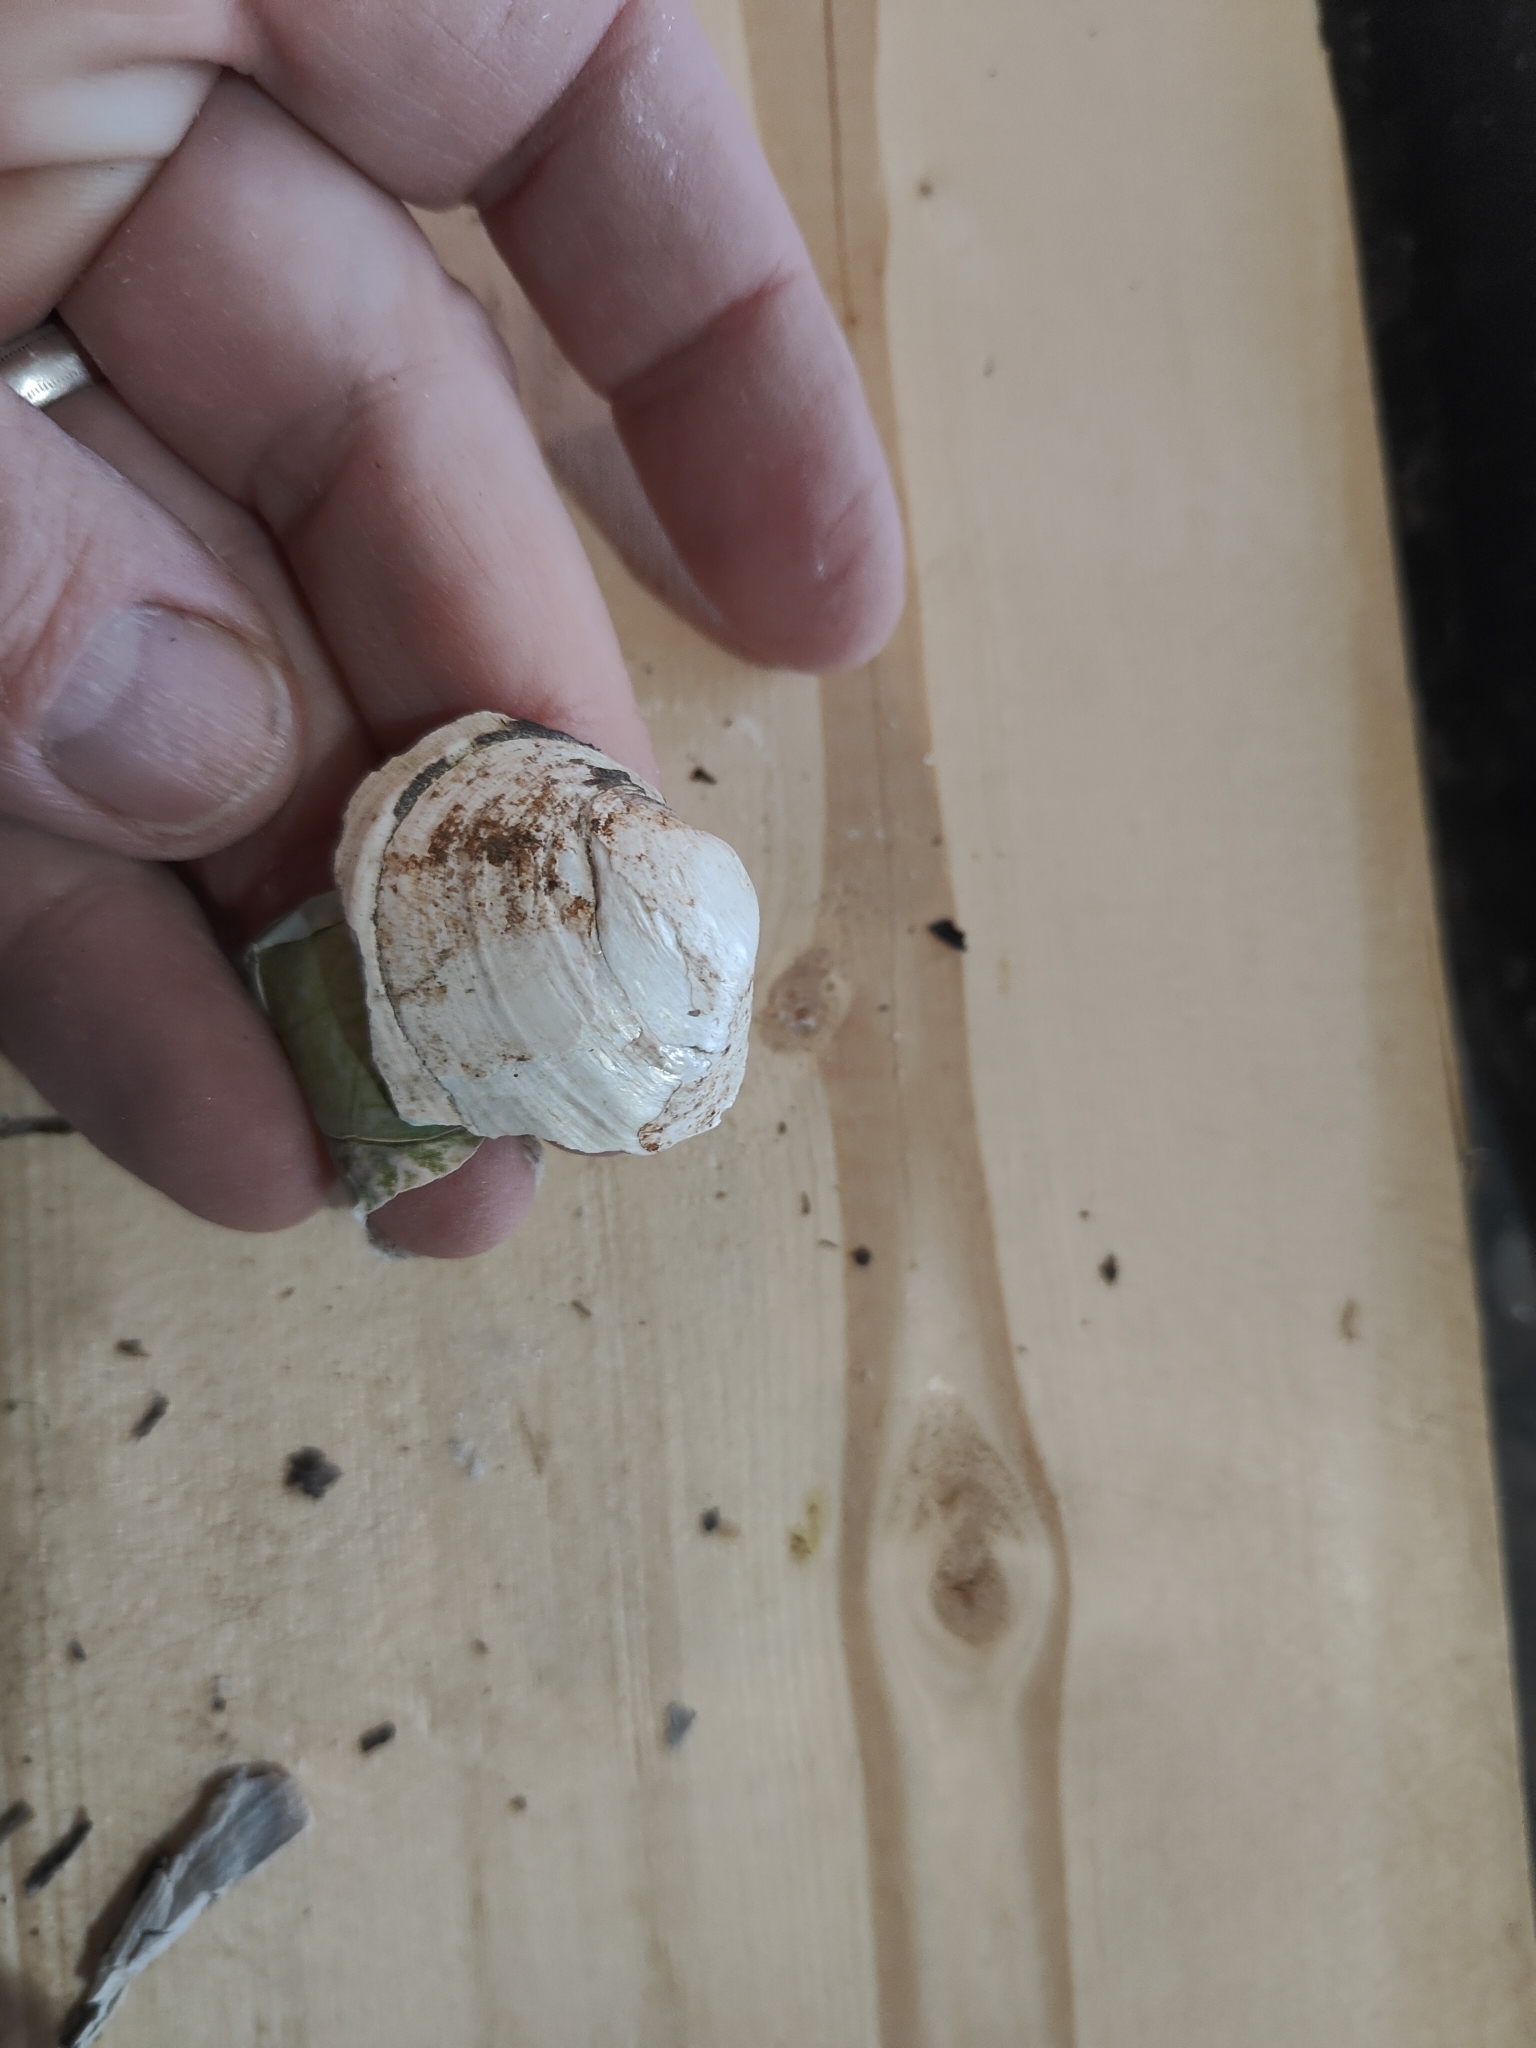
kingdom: Animalia
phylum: Mollusca
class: Bivalvia
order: Unionida
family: Unionidae
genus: Fusconaia
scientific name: Fusconaia flava
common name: Wabash pigtoe
